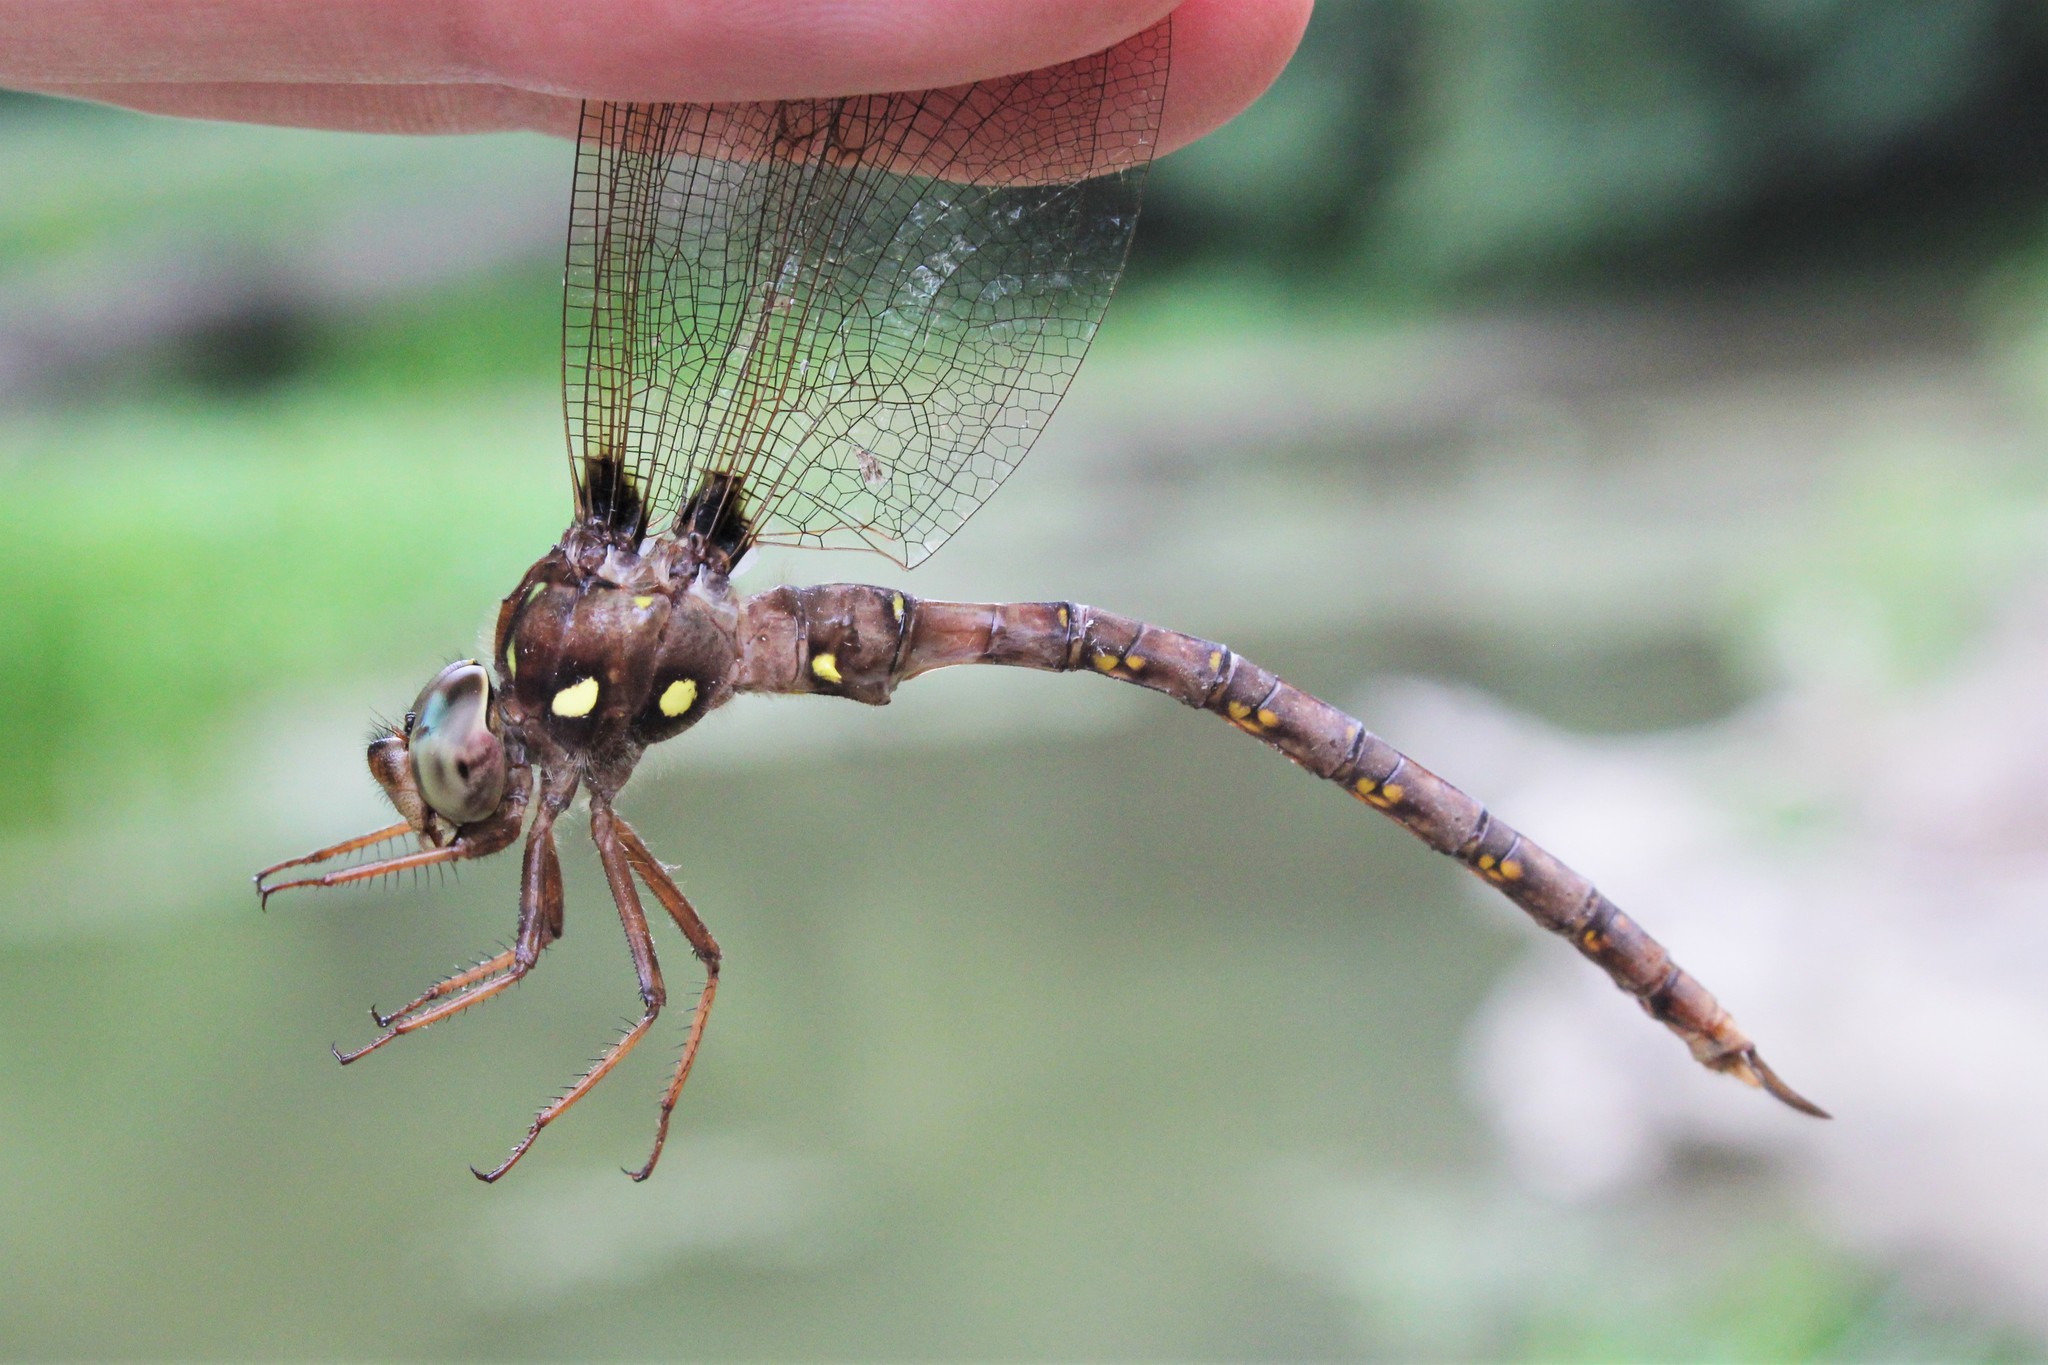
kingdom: Animalia
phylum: Arthropoda
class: Insecta
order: Odonata
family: Aeshnidae
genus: Boyeria
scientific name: Boyeria vinosa
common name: Fawn darner
